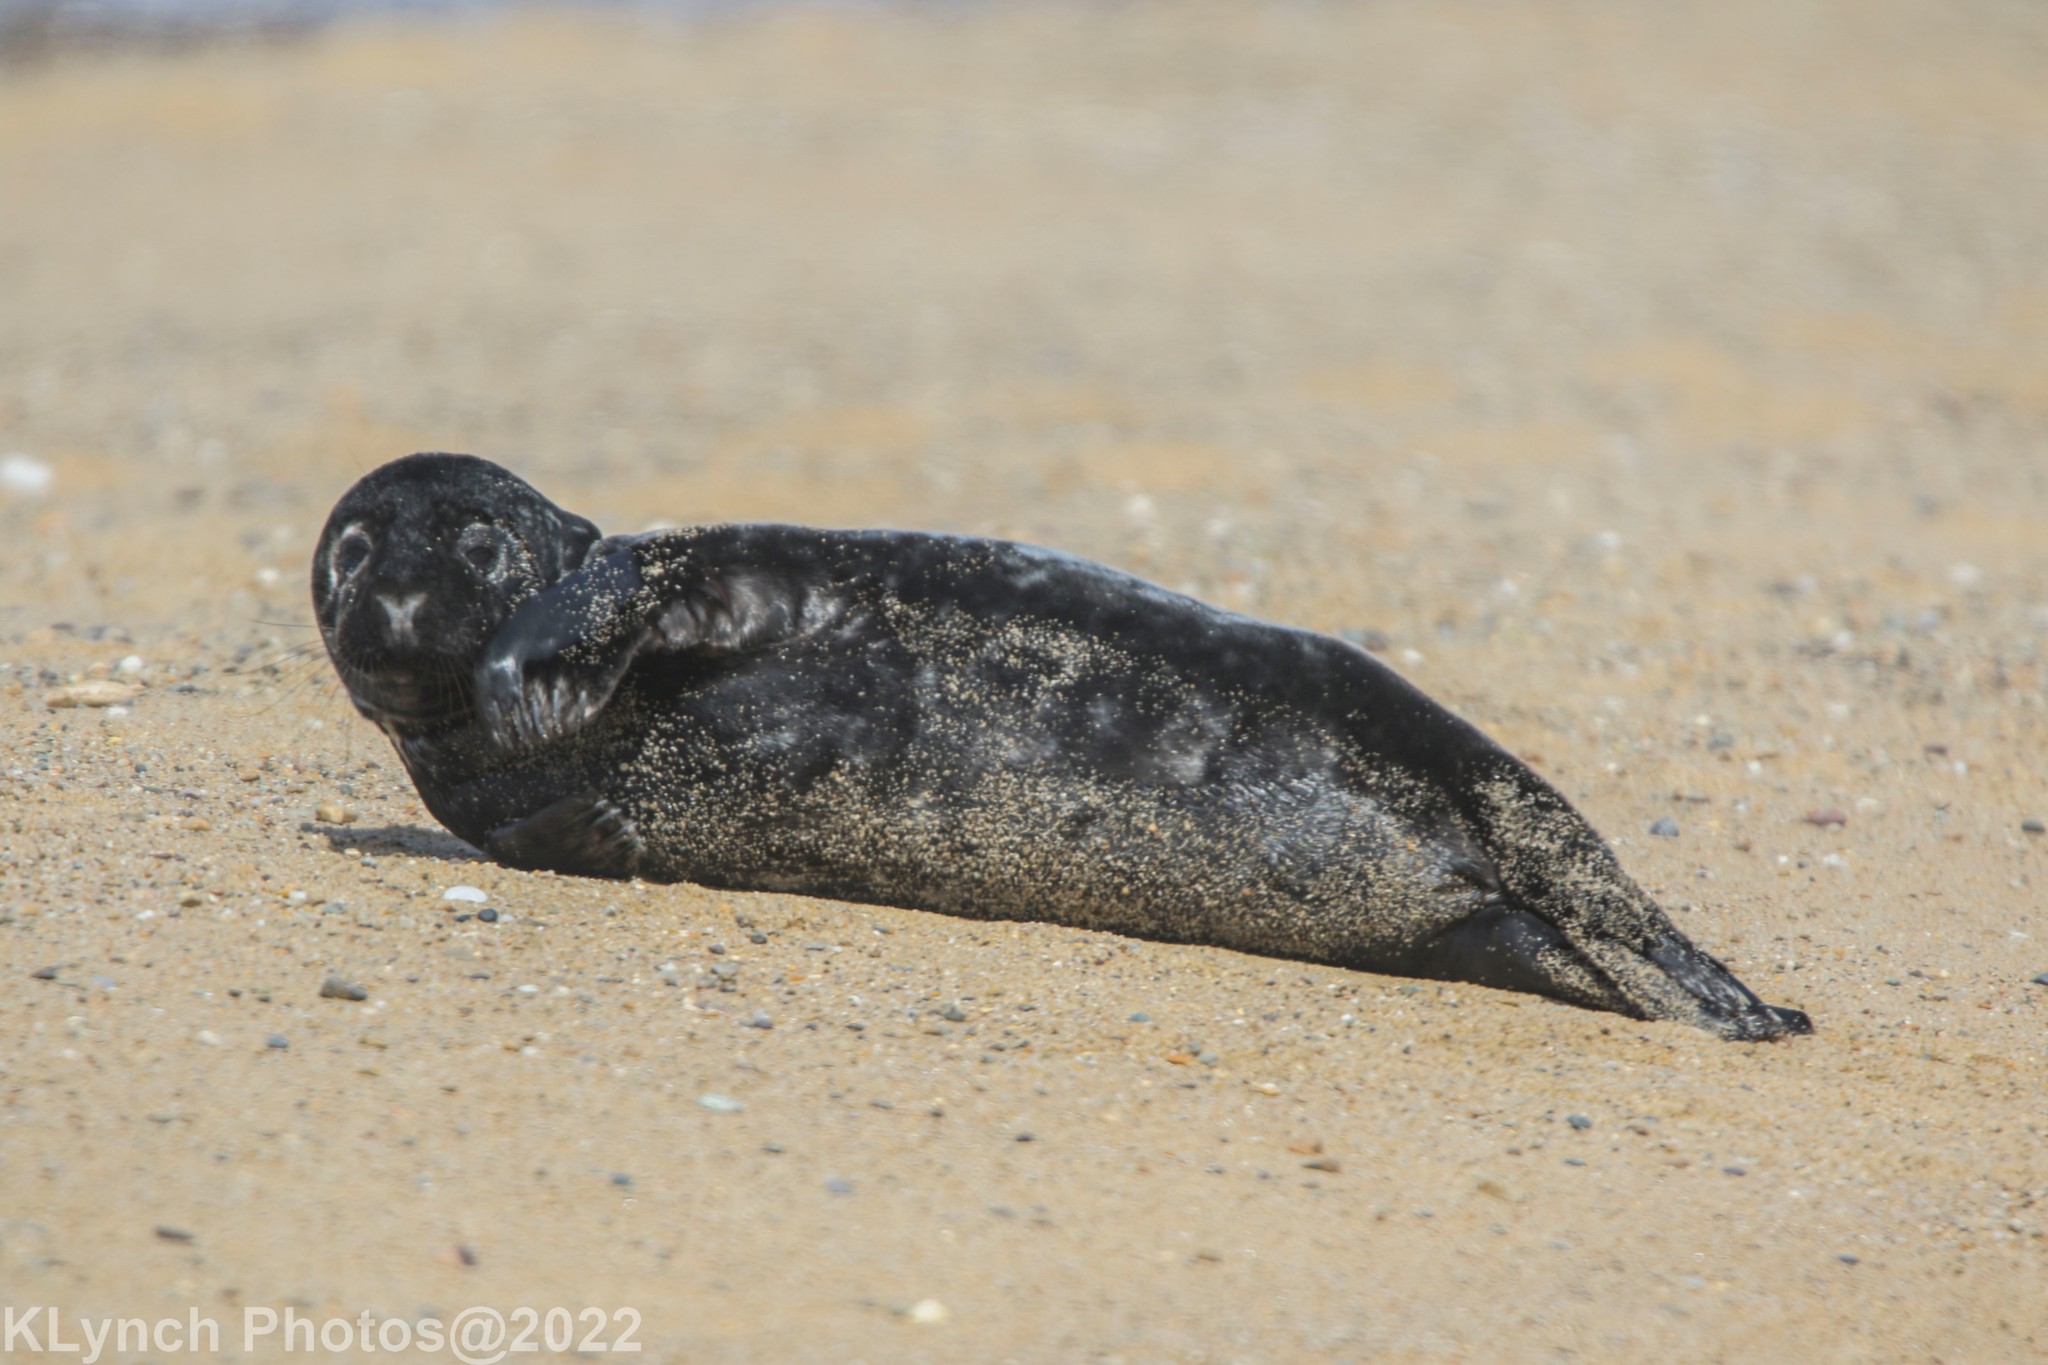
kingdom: Animalia
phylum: Chordata
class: Mammalia
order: Carnivora
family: Phocidae
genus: Halichoerus
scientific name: Halichoerus grypus
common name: Grey seal
